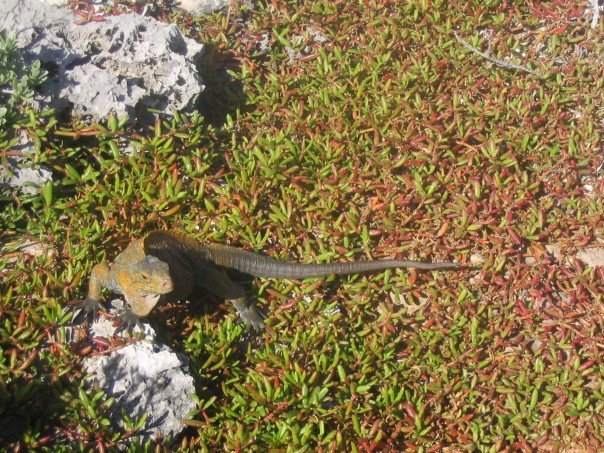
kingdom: Animalia
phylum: Chordata
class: Squamata
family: Iguanidae
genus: Cyclura
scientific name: Cyclura rileyi
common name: Acklin's ground iguana
